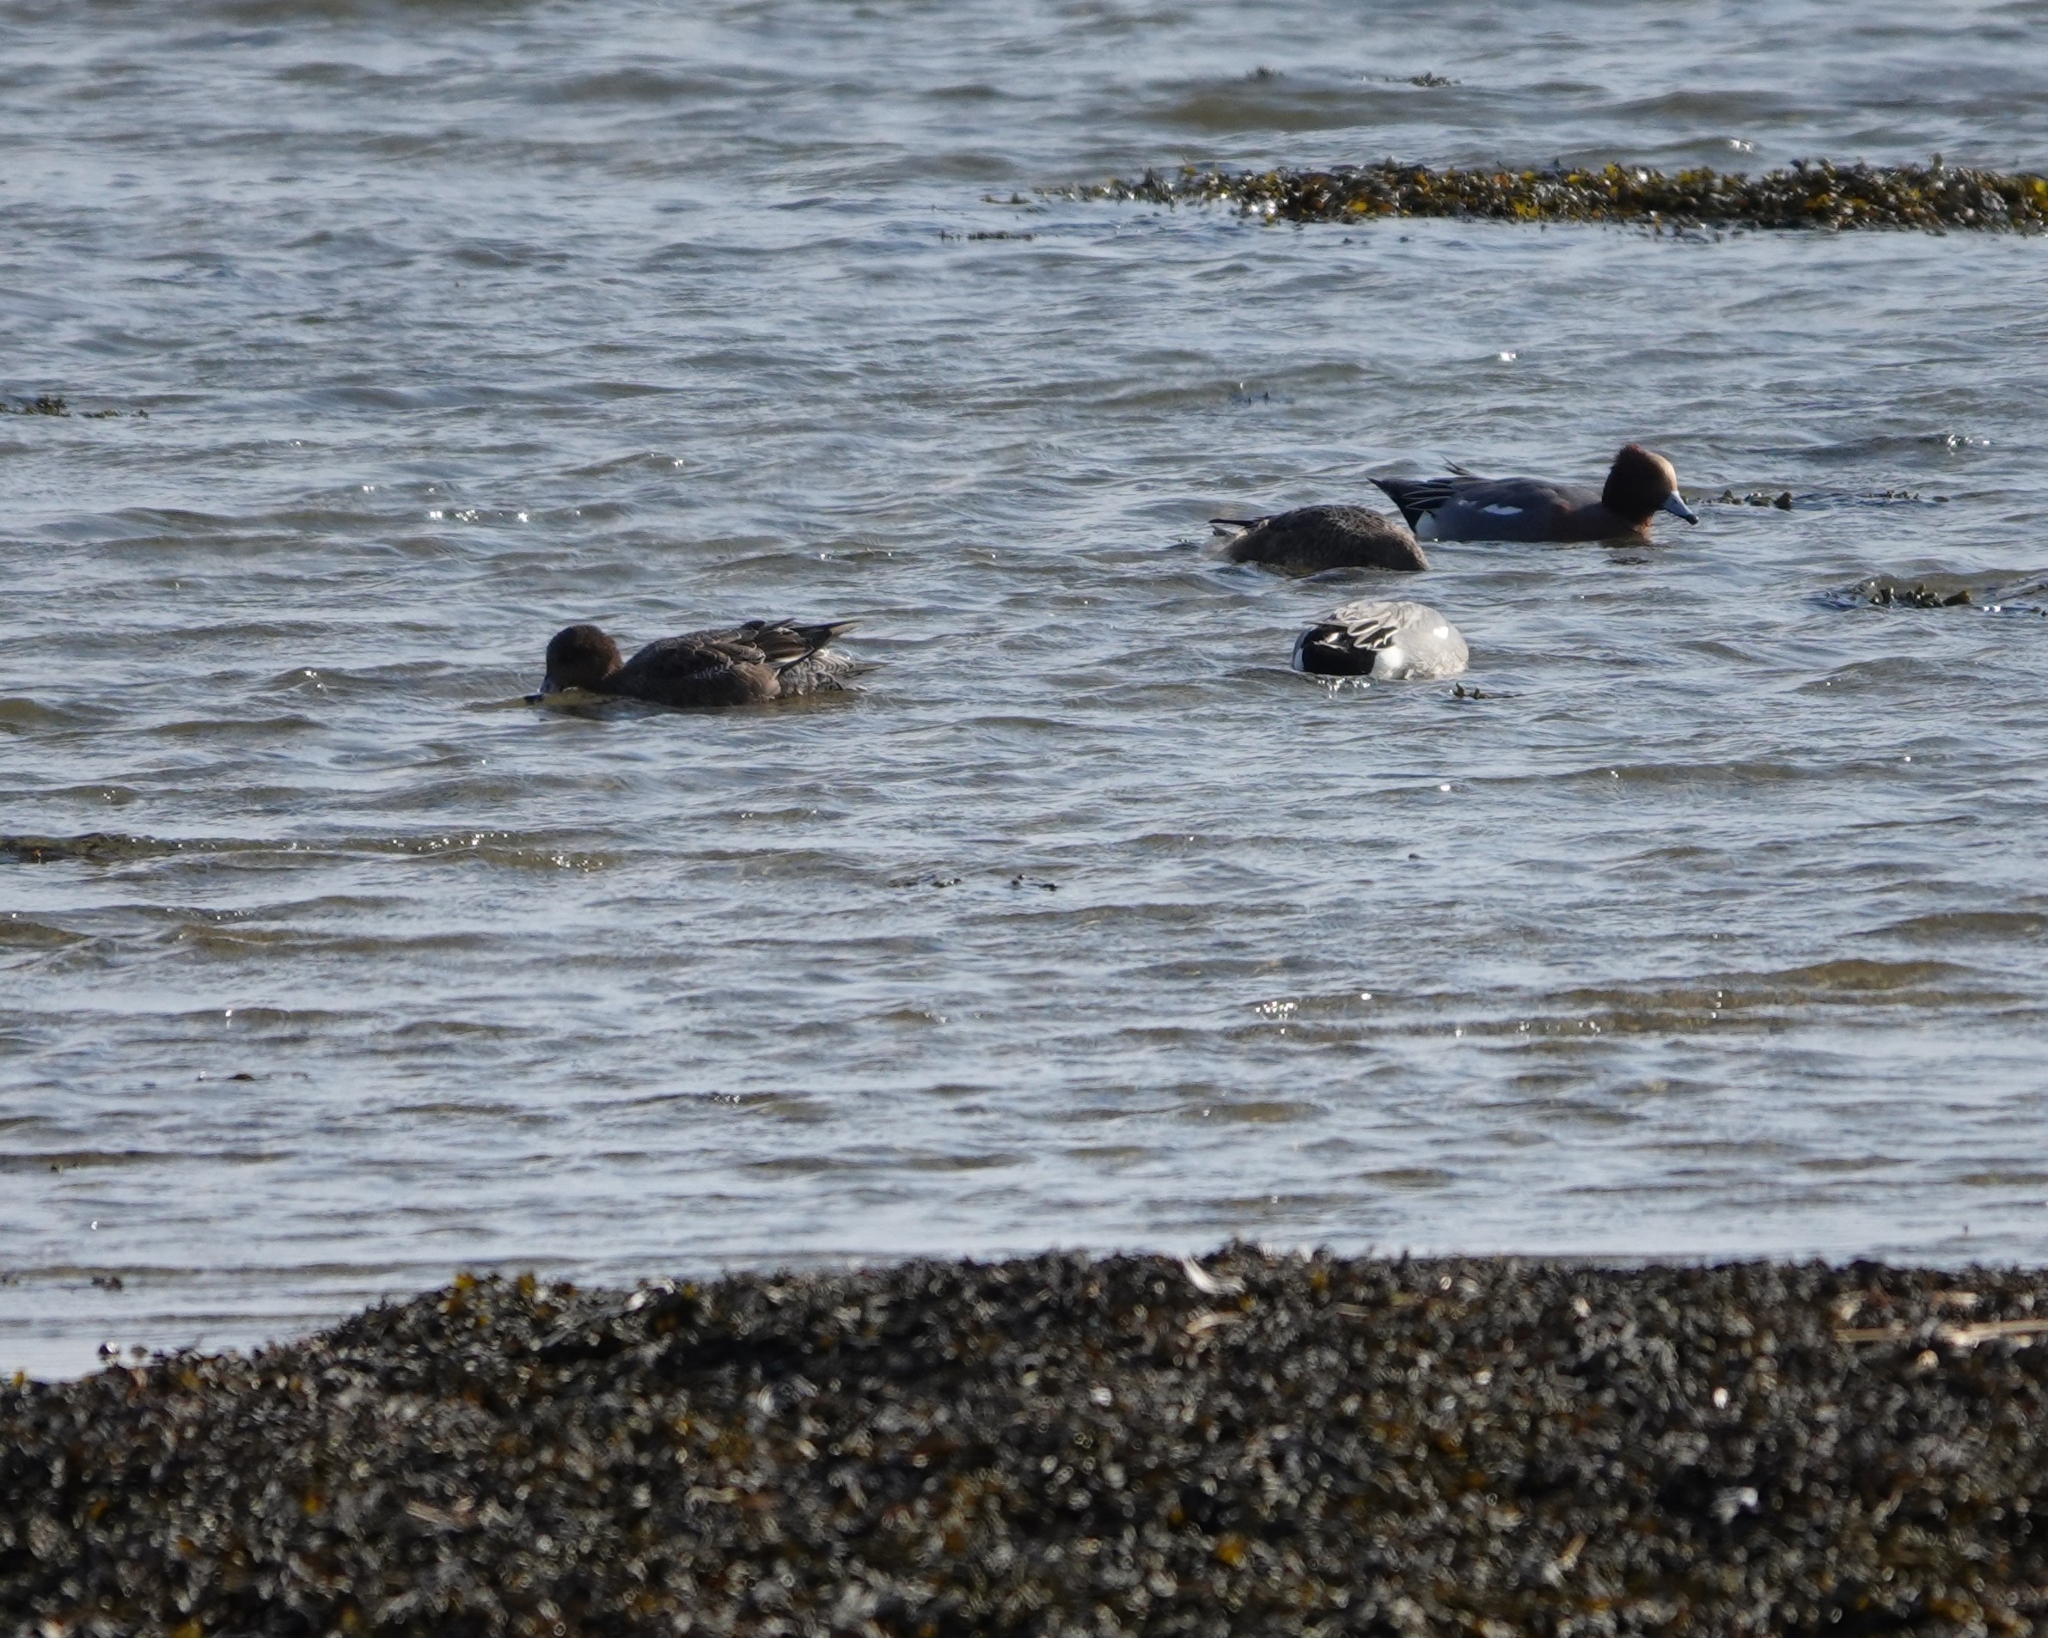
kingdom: Animalia
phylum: Chordata
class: Aves
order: Anseriformes
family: Anatidae
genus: Mareca
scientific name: Mareca penelope
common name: Eurasian wigeon
